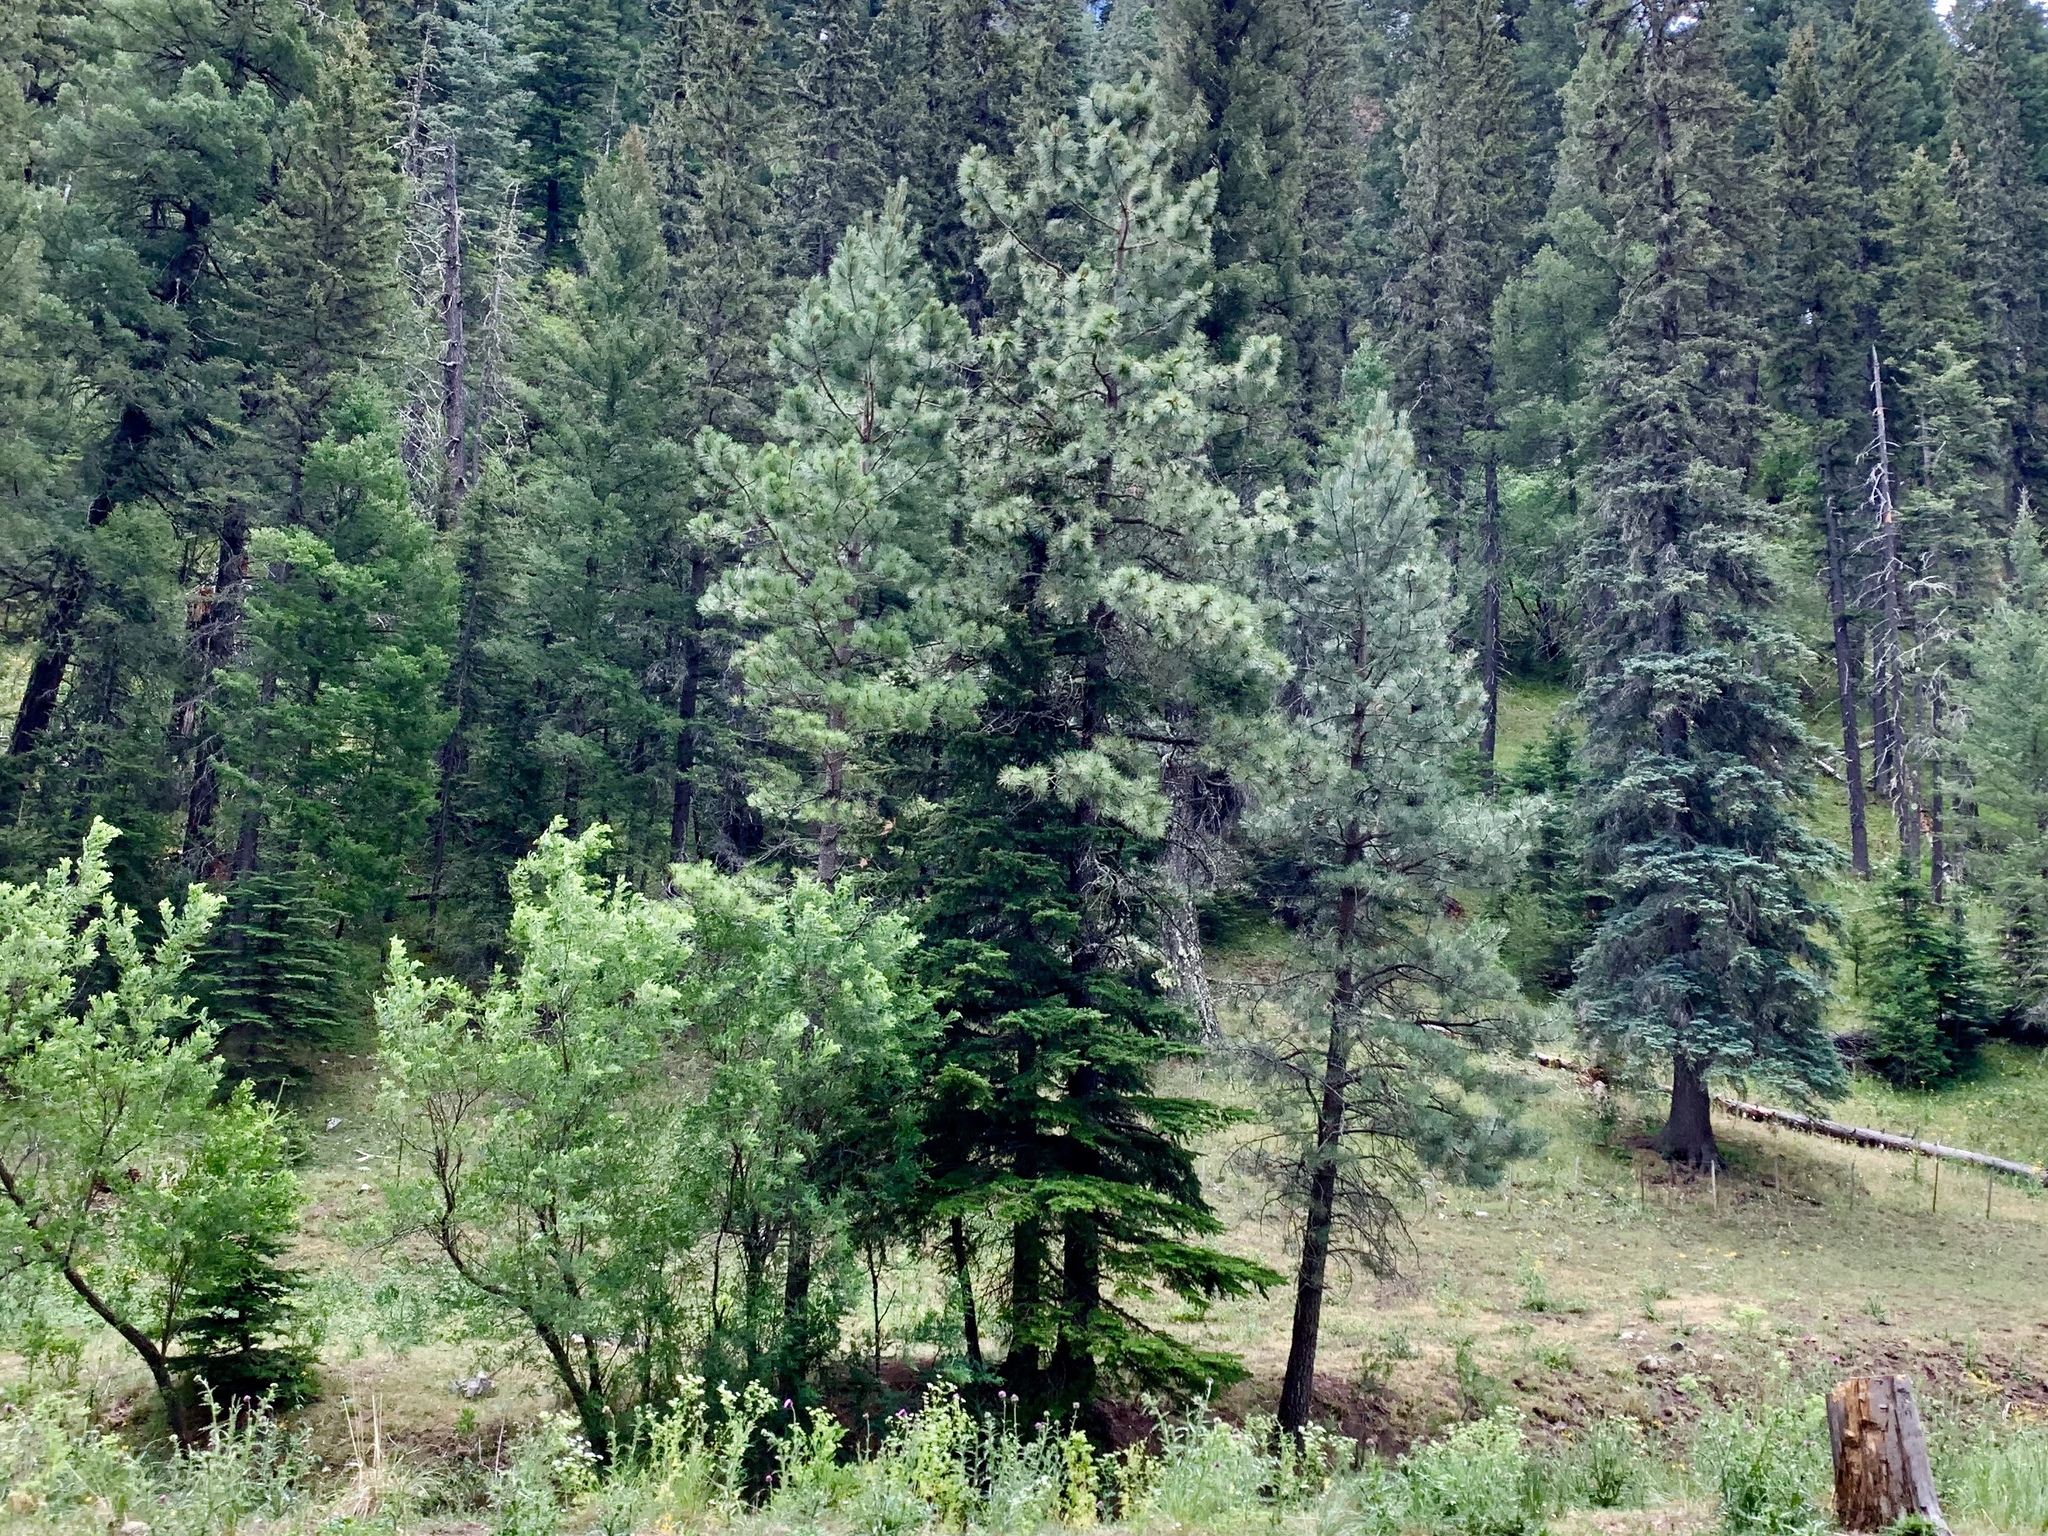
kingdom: Plantae
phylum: Tracheophyta
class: Pinopsida
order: Pinales
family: Pinaceae
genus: Pinus
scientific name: Pinus ponderosa
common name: Western yellow-pine
